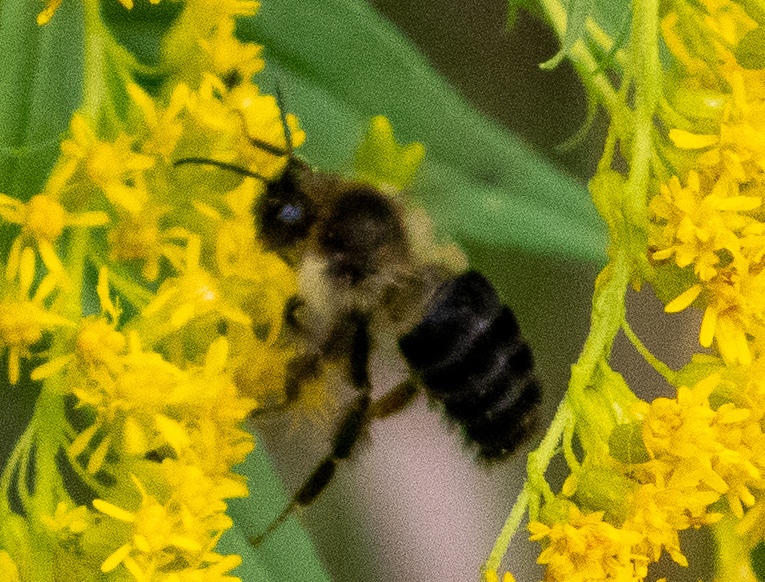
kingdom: Animalia
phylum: Arthropoda
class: Insecta
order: Hymenoptera
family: Apidae
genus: Bombus
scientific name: Bombus impatiens
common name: Common eastern bumble bee
